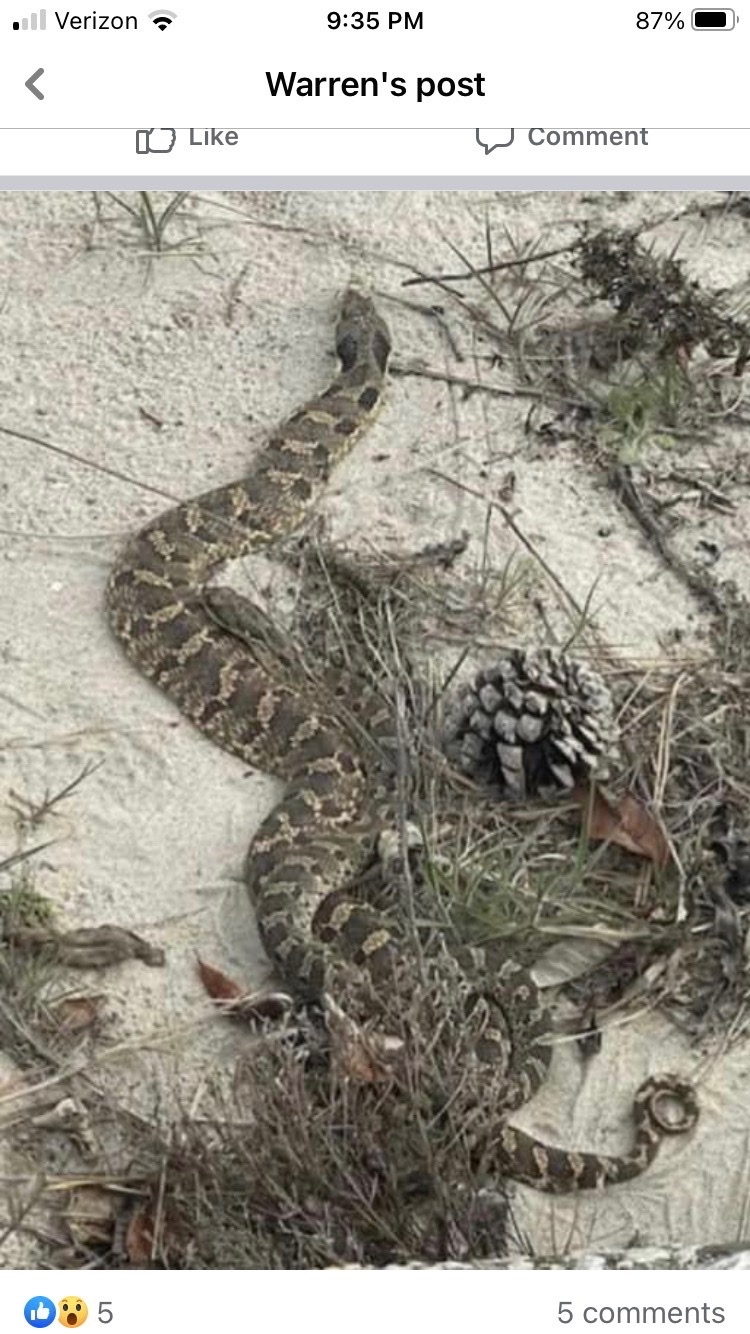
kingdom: Animalia
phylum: Chordata
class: Squamata
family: Colubridae
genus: Heterodon
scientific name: Heterodon platirhinos
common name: Eastern hognose snake
